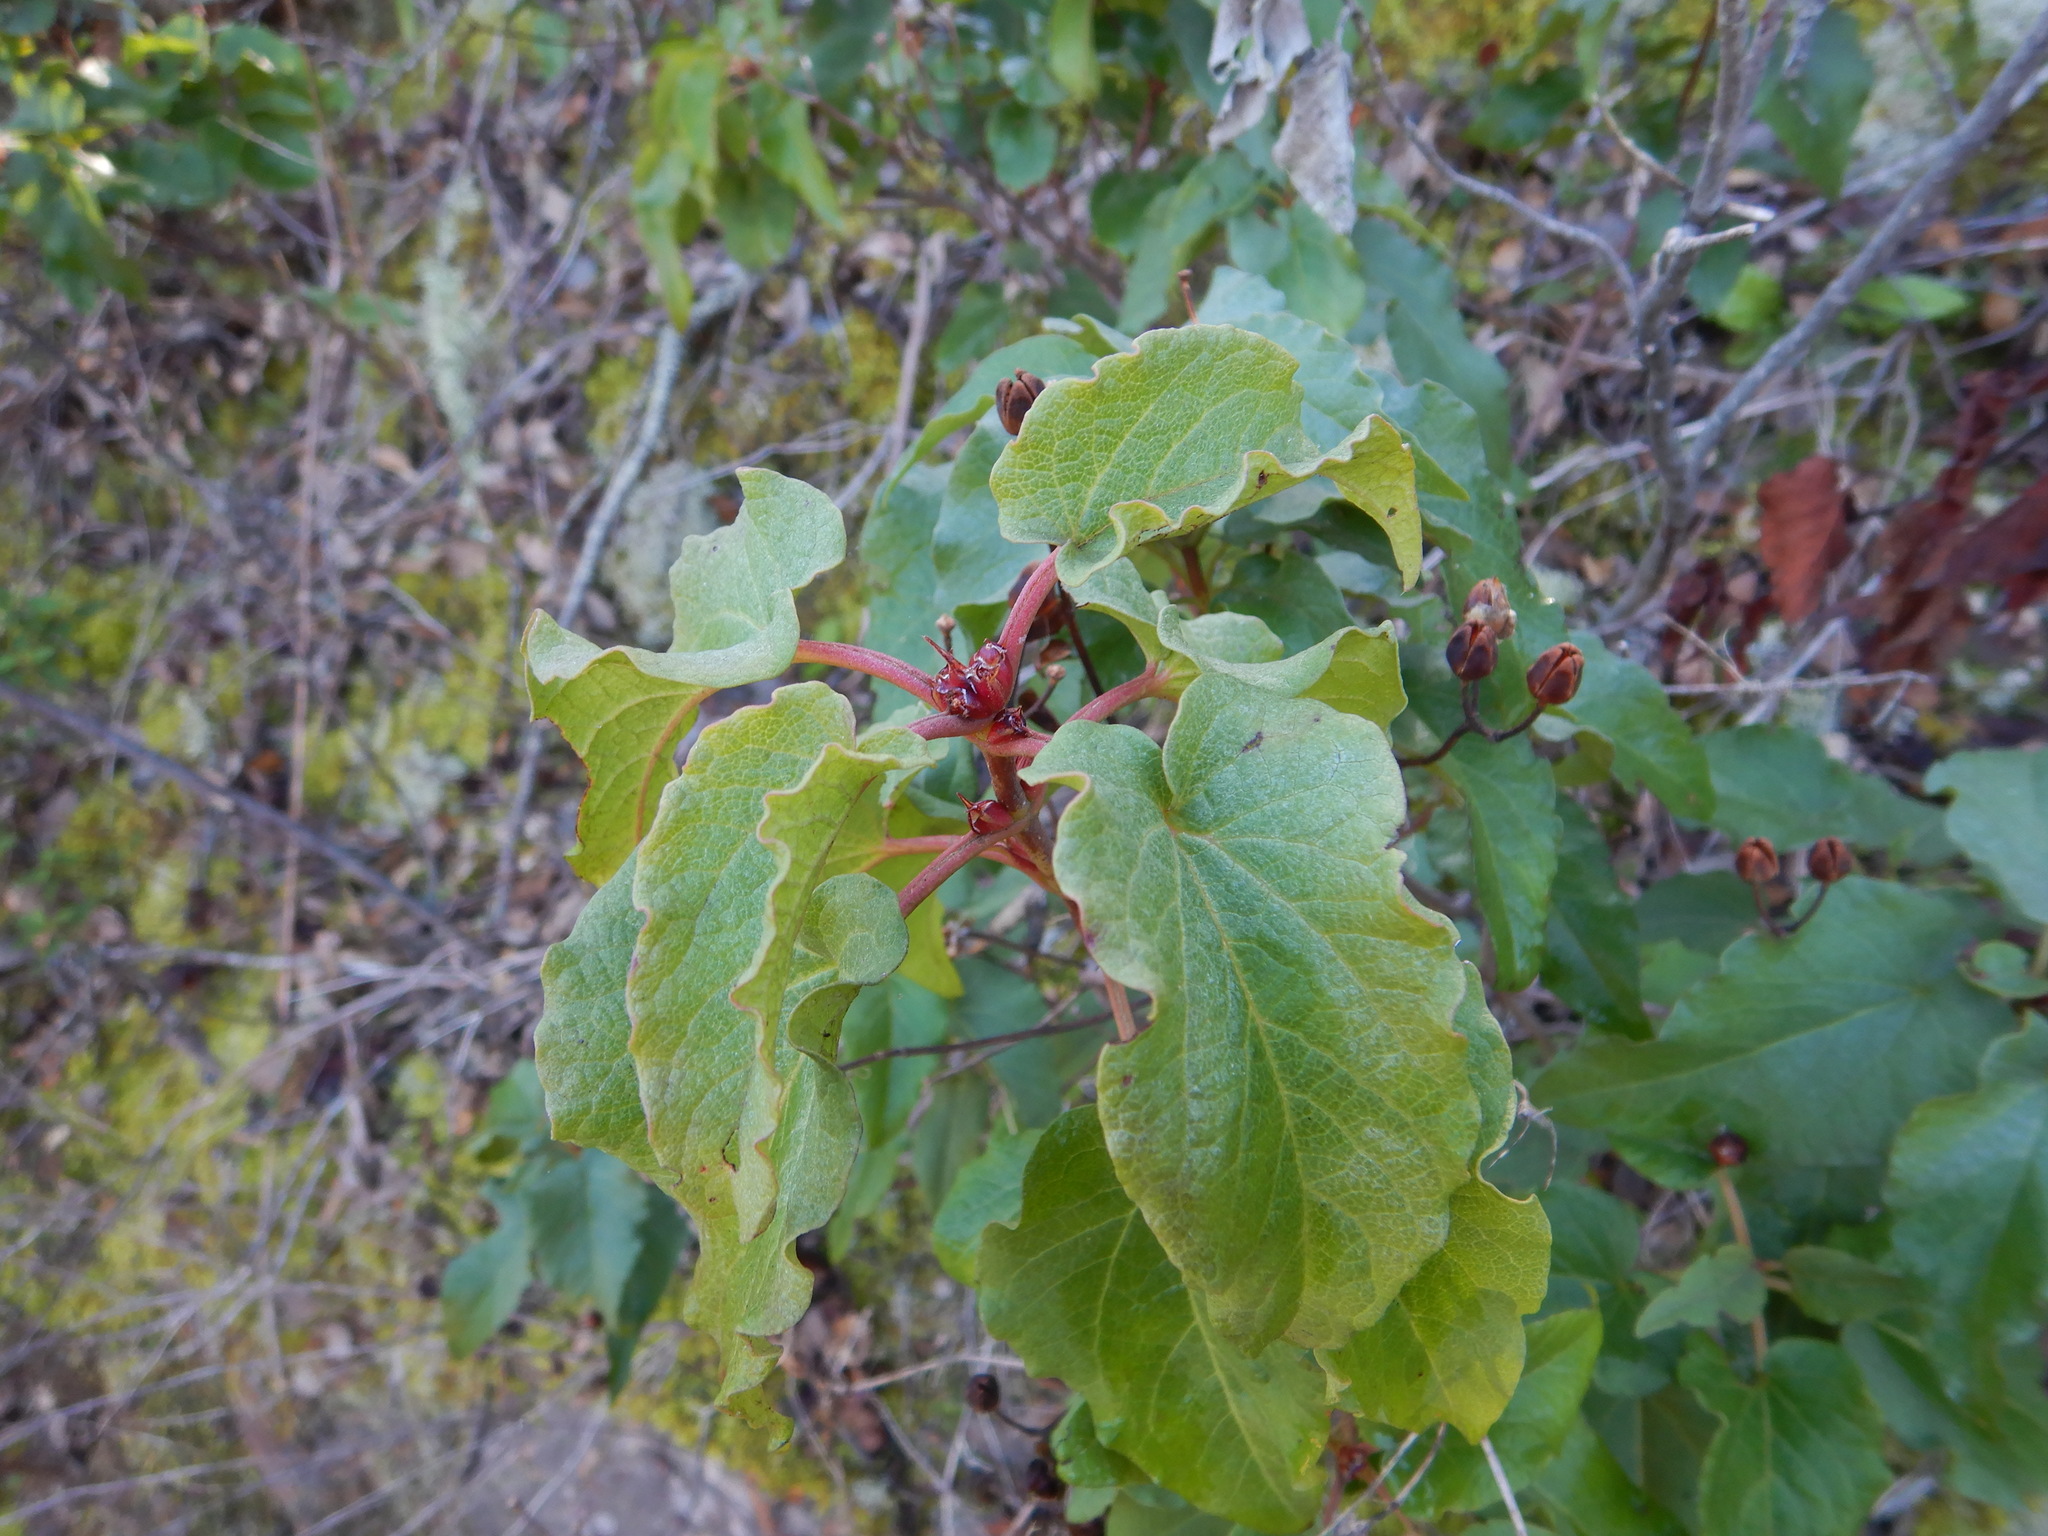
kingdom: Plantae
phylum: Tracheophyta
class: Magnoliopsida
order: Malvales
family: Cistaceae
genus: Cistus
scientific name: Cistus populifolius
